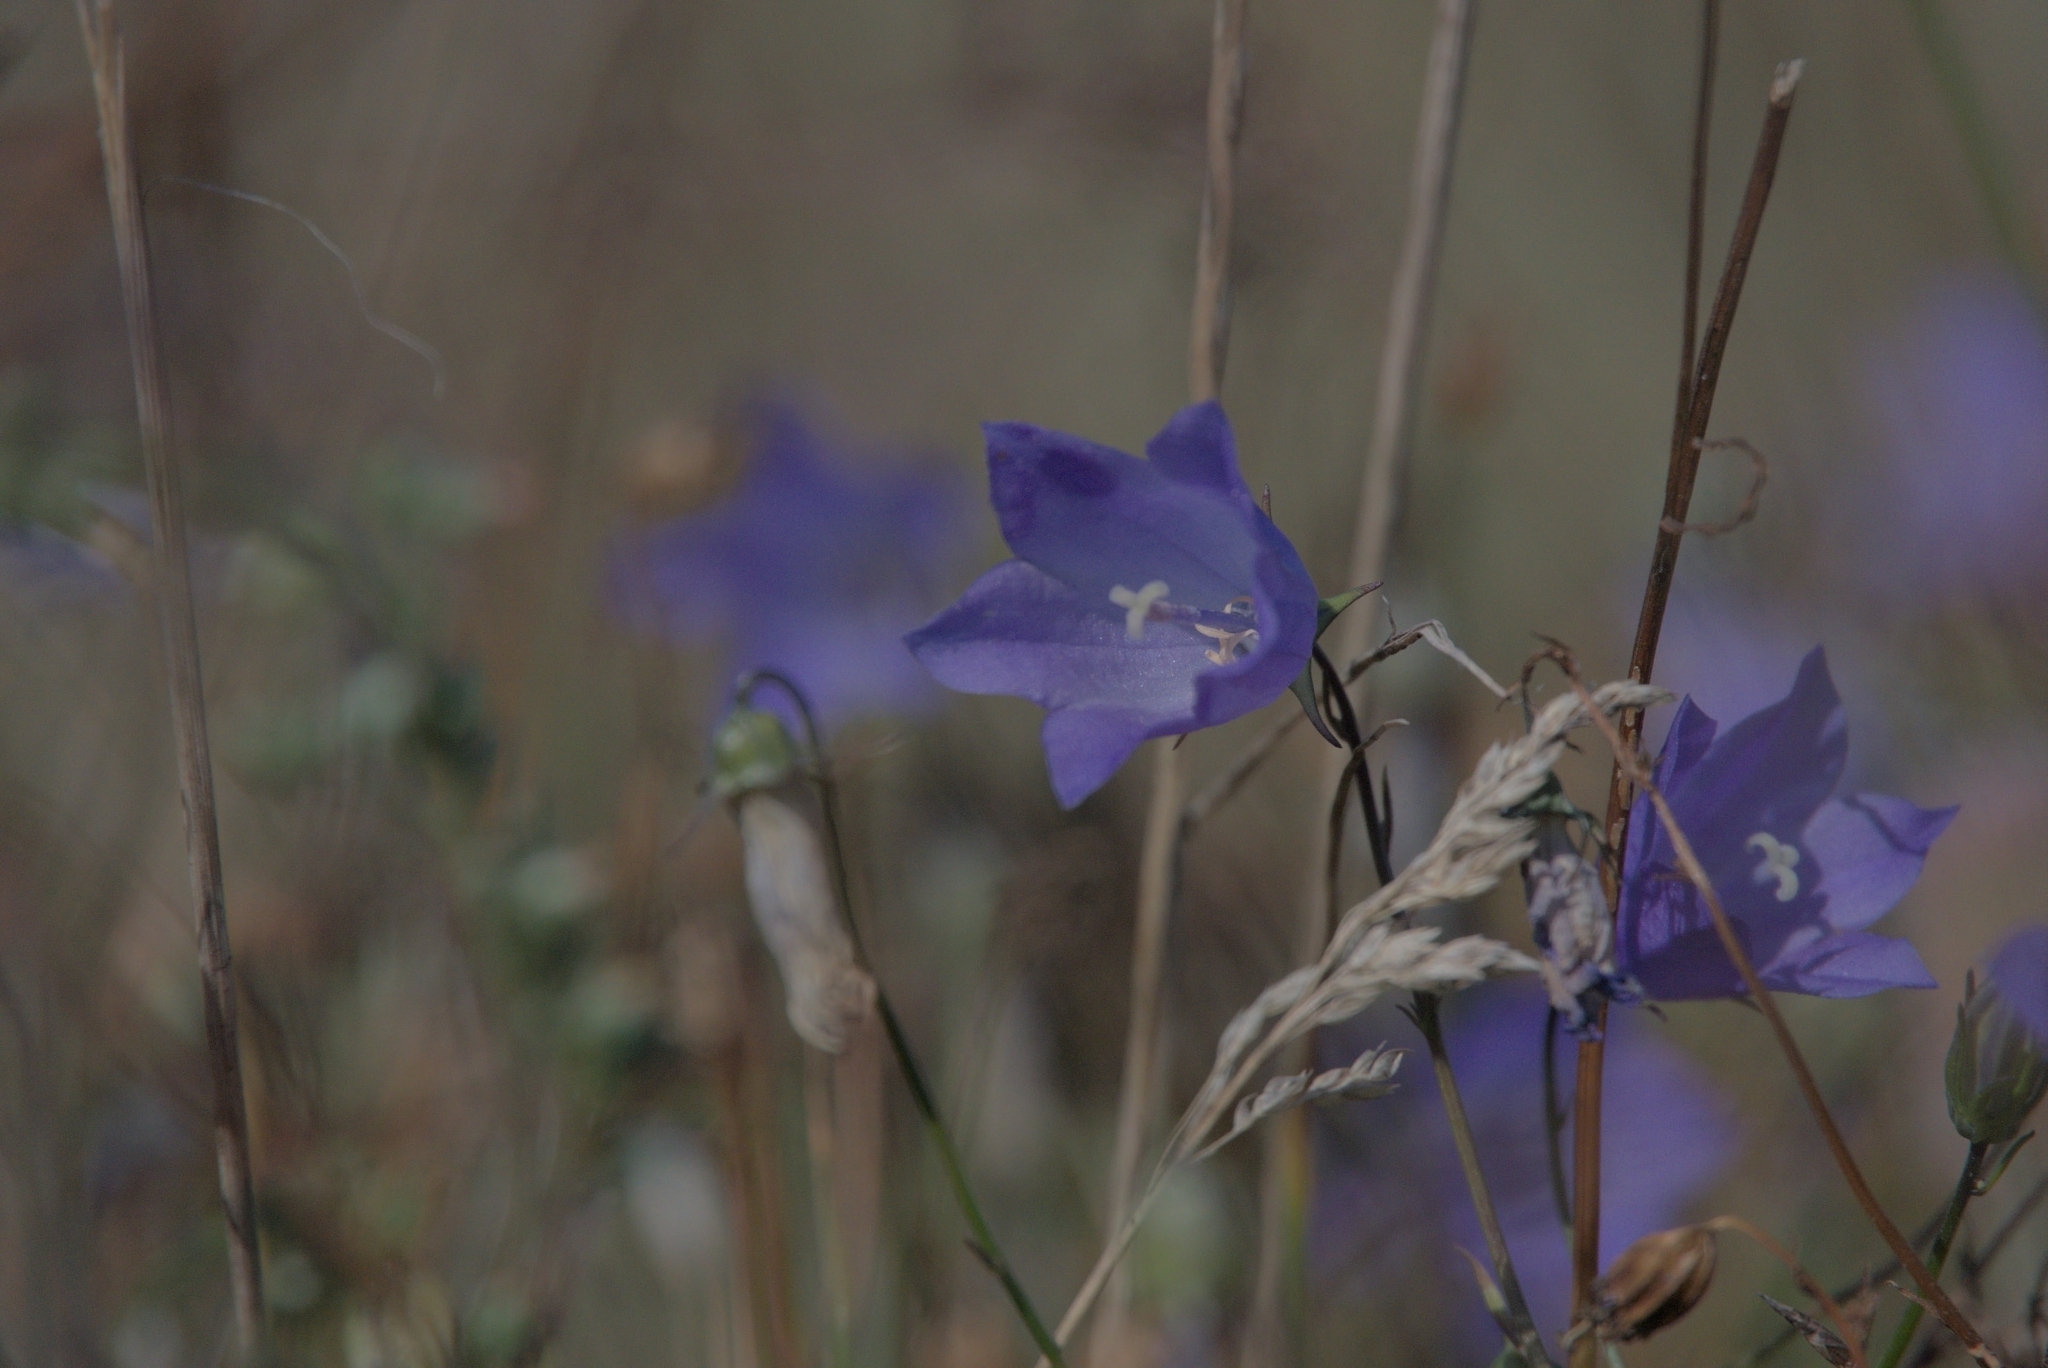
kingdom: Plantae
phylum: Tracheophyta
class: Magnoliopsida
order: Asterales
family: Campanulaceae
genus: Campanula
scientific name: Campanula rotundifolia
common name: Harebell
